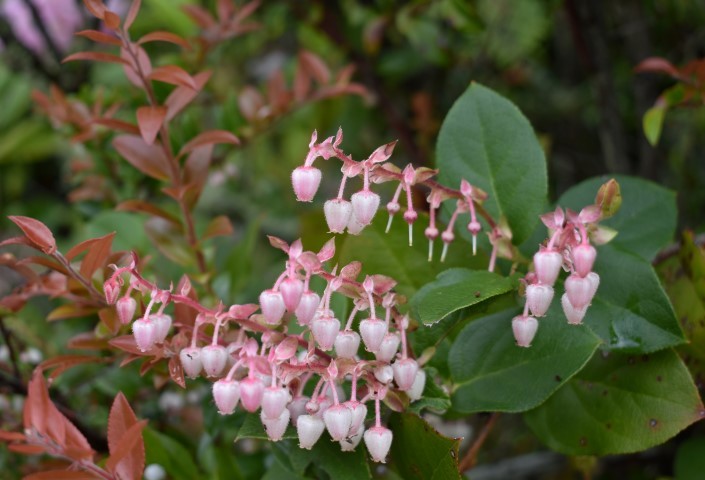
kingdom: Plantae
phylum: Tracheophyta
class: Magnoliopsida
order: Ericales
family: Ericaceae
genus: Gaultheria
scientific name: Gaultheria shallon
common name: Shallon
